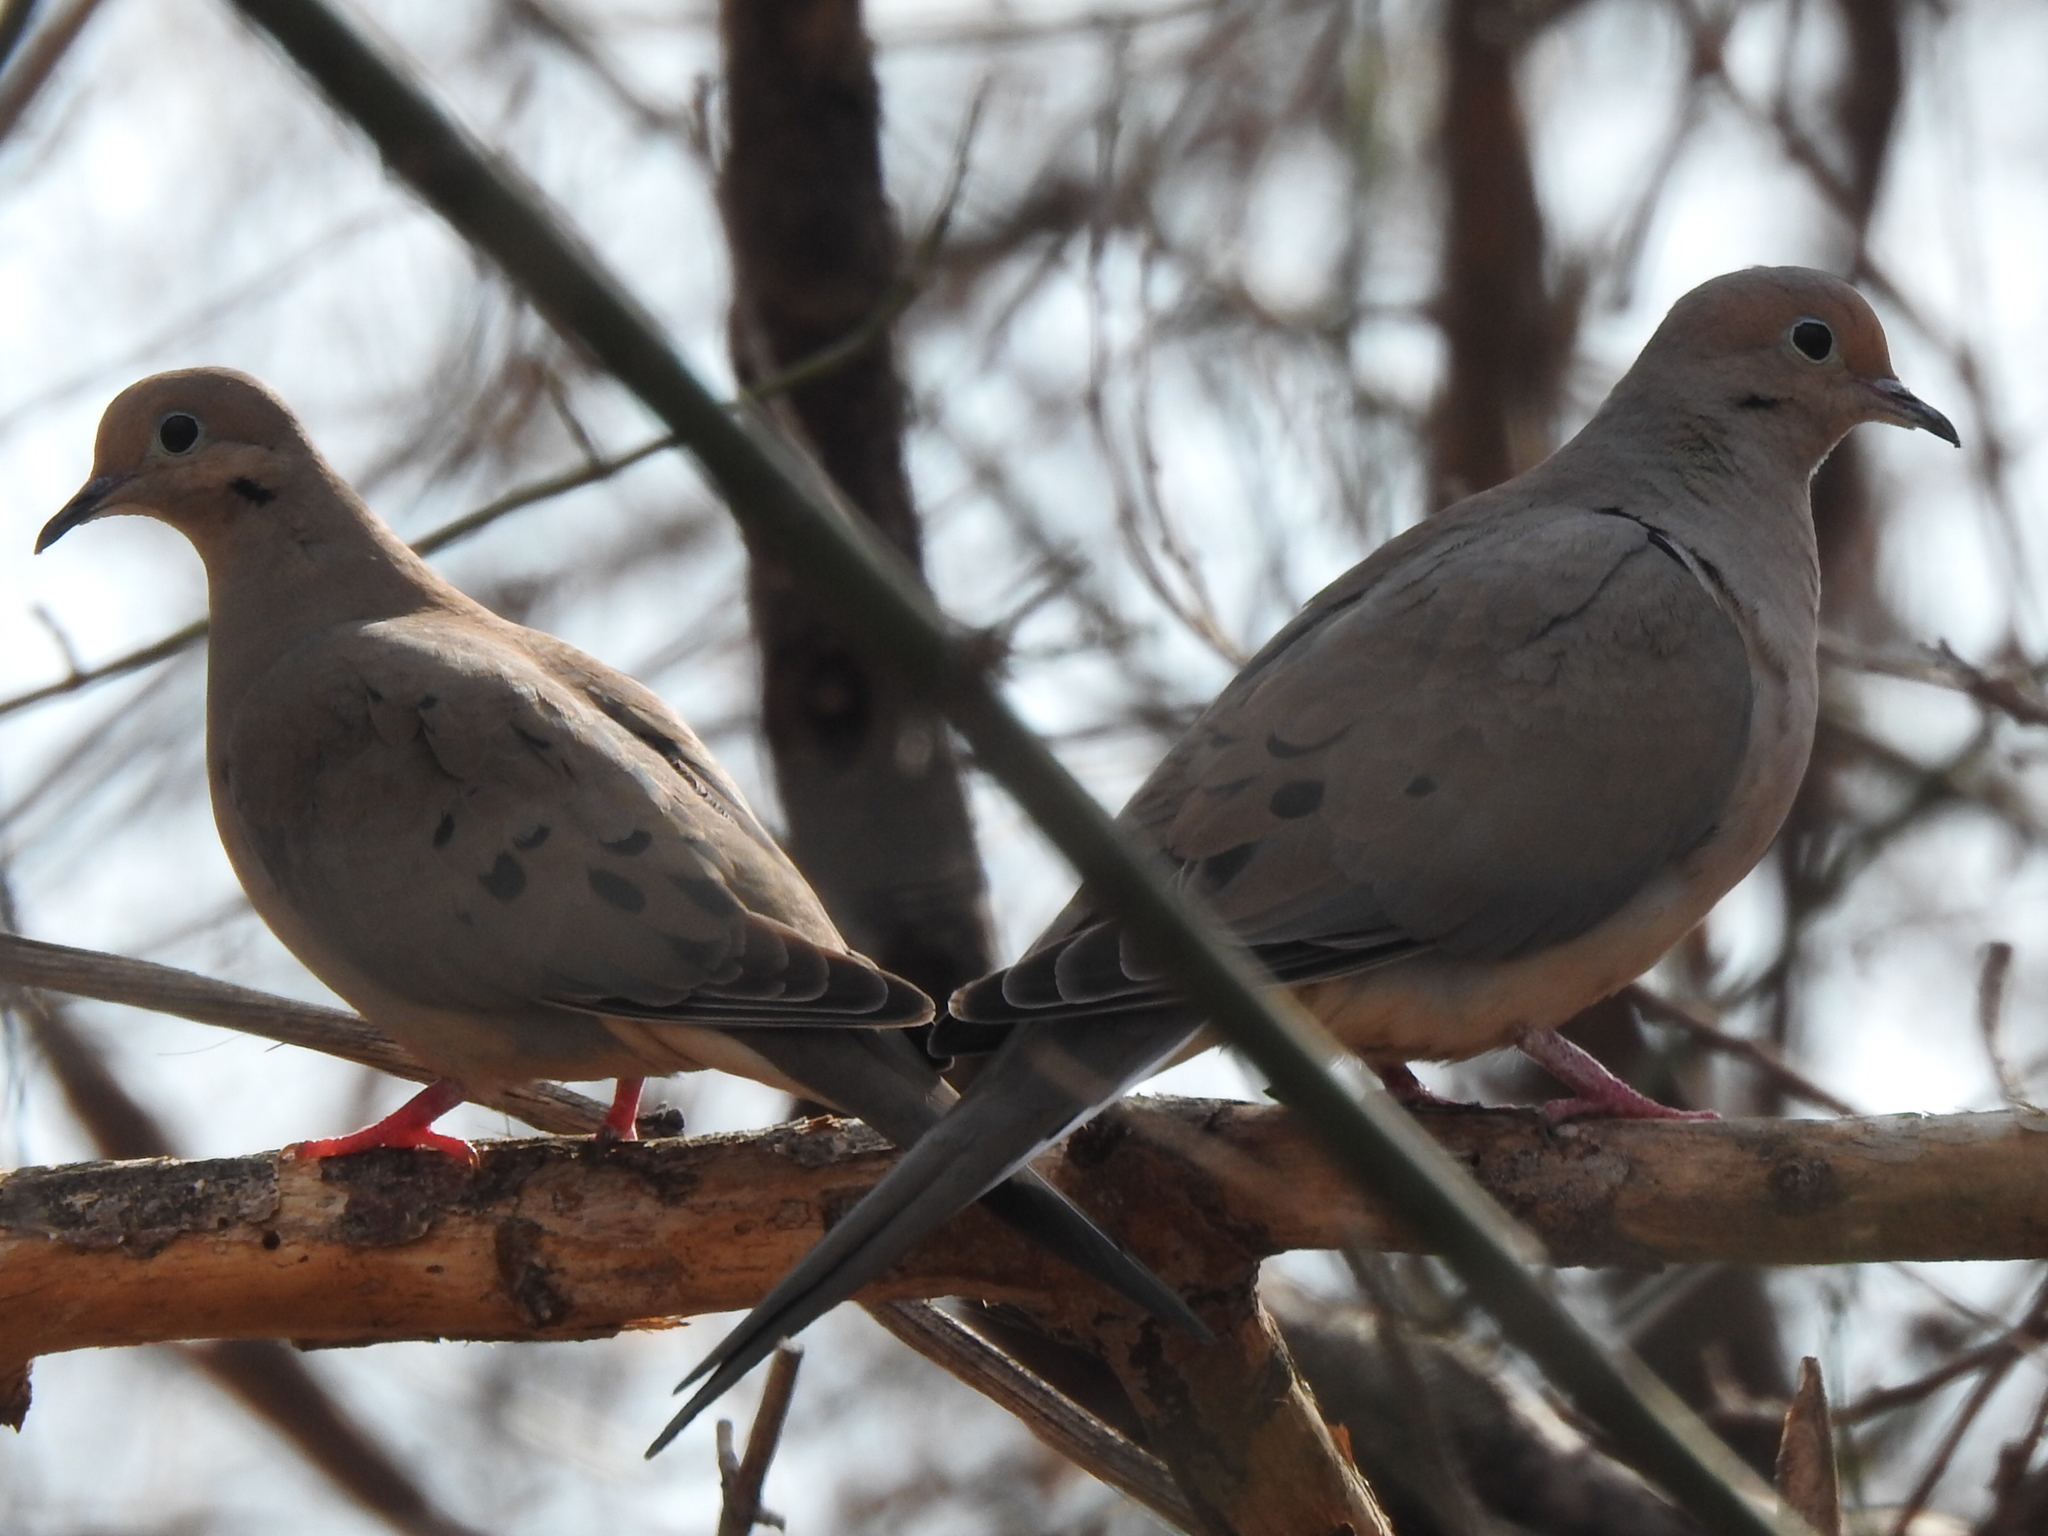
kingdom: Animalia
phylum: Chordata
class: Aves
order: Columbiformes
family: Columbidae
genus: Zenaida
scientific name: Zenaida macroura
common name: Mourning dove
